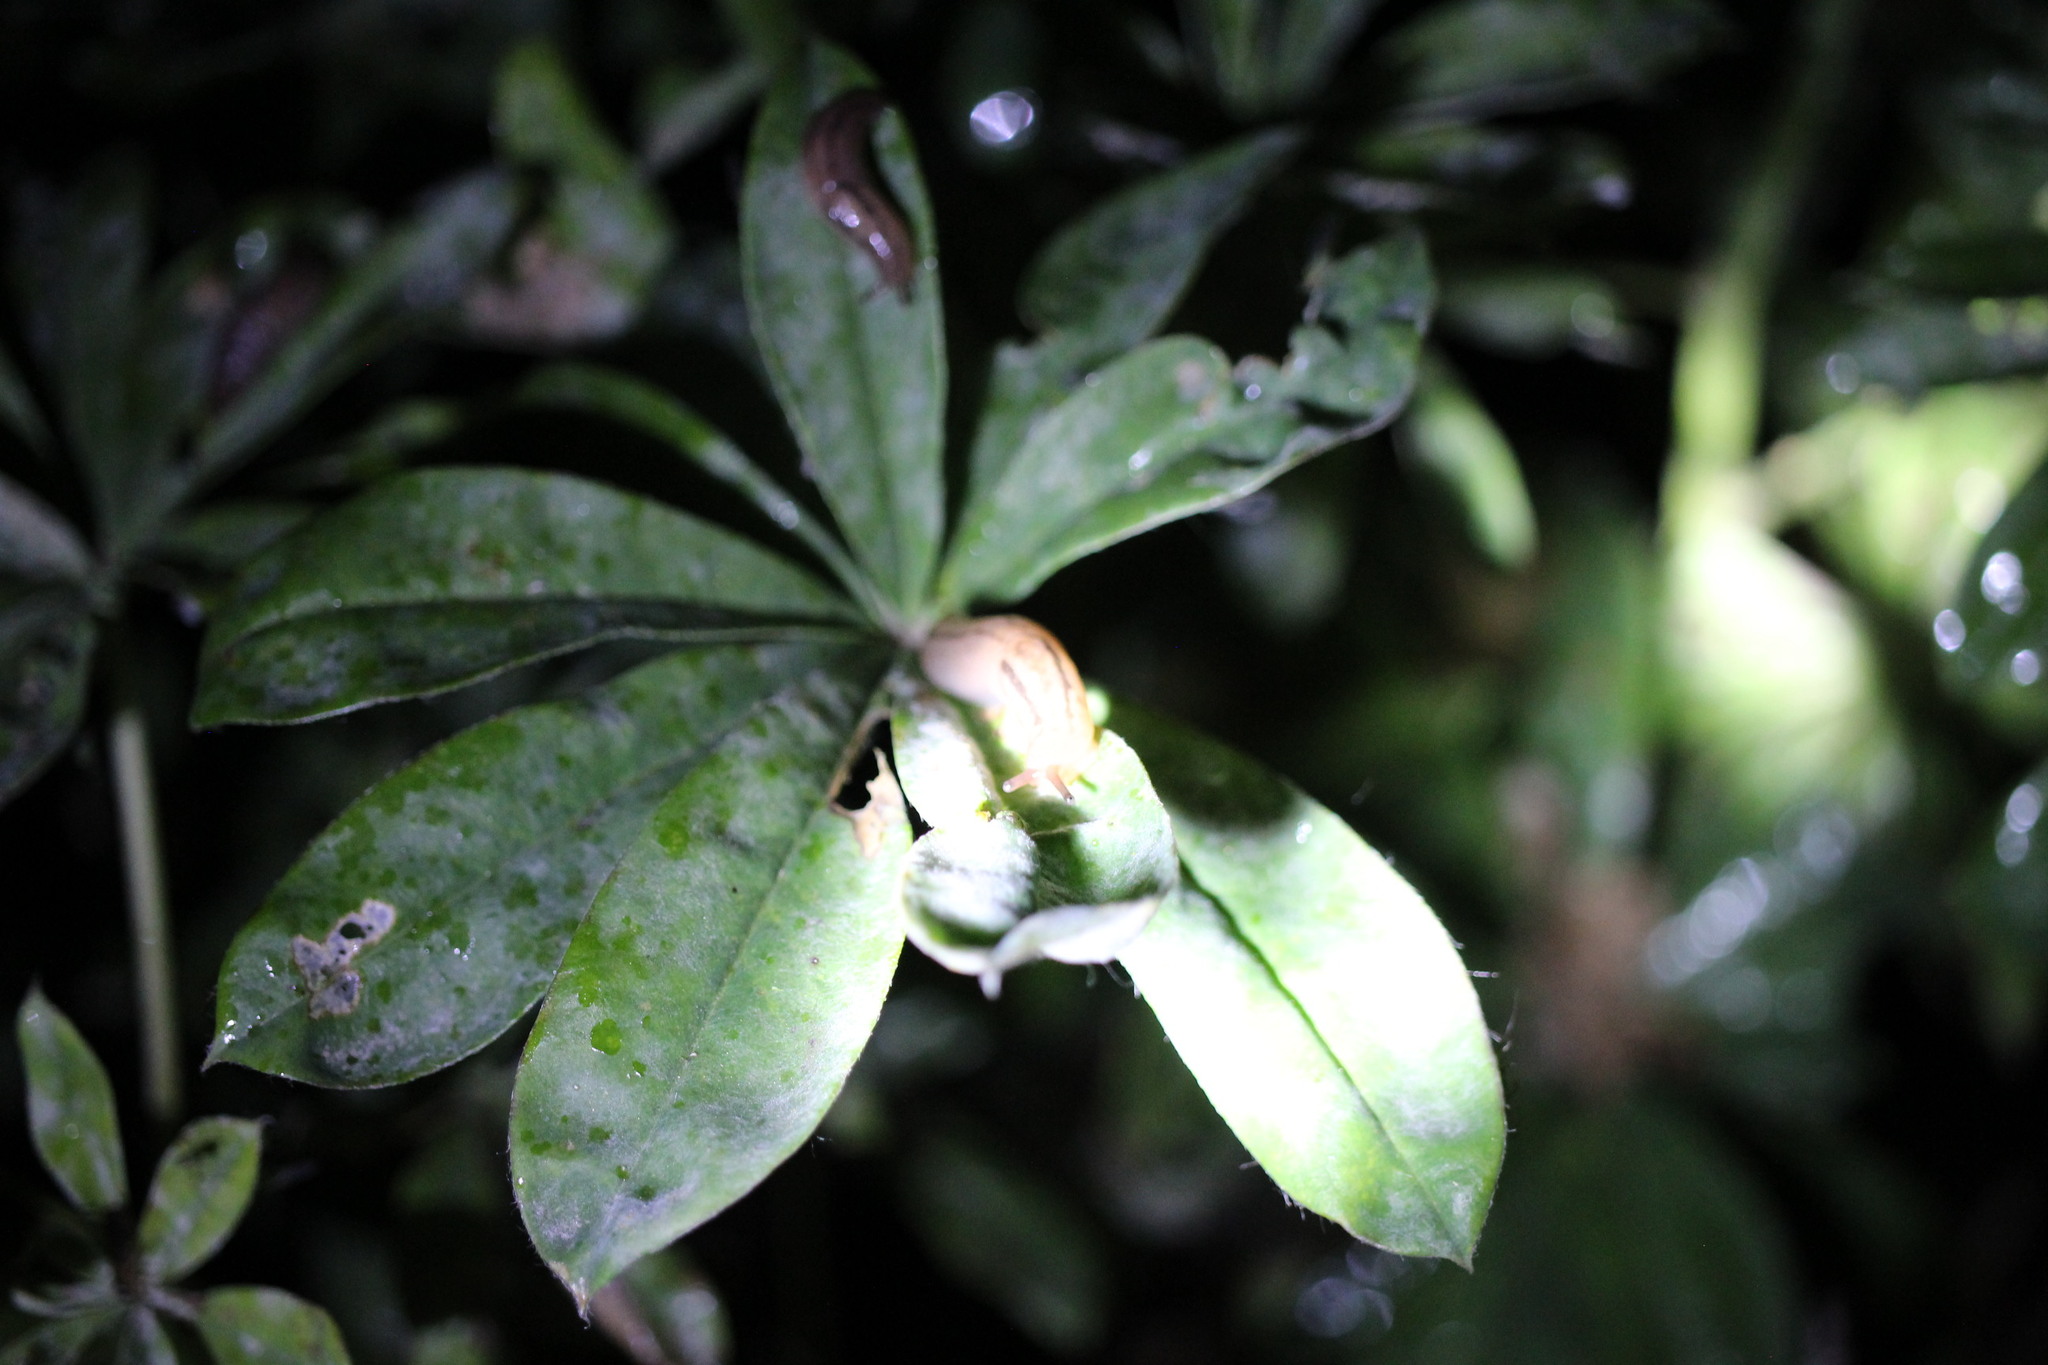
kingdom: Animalia
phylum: Mollusca
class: Gastropoda
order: Stylommatophora
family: Limacidae
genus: Ambigolimax
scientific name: Ambigolimax
